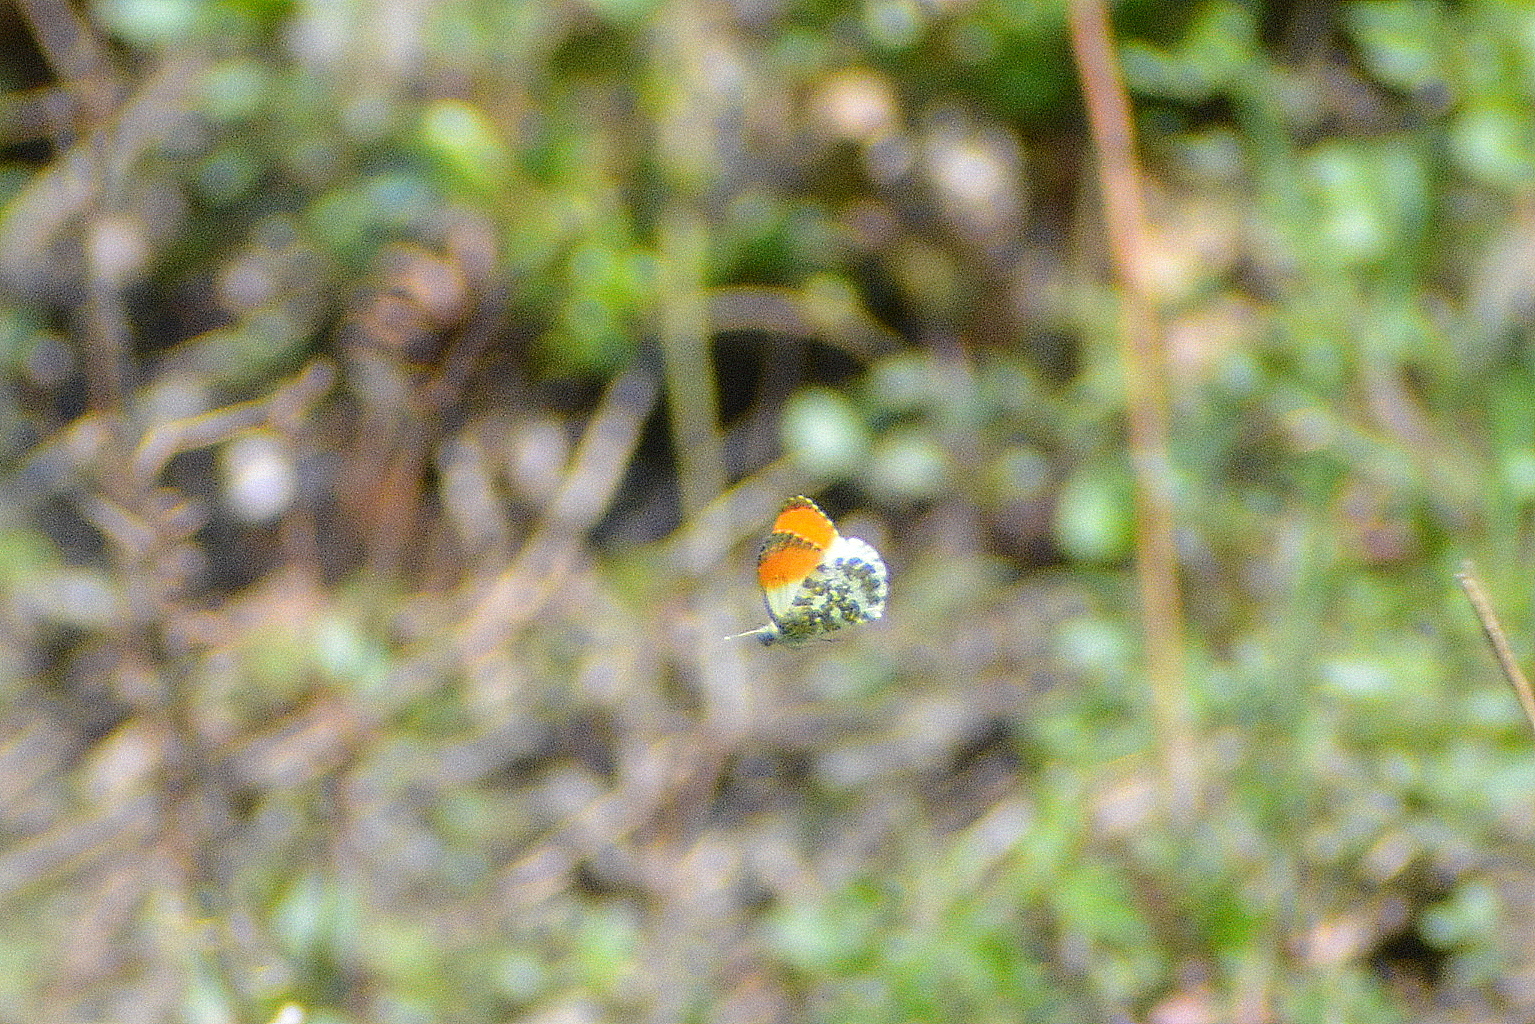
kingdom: Animalia
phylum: Arthropoda
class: Insecta
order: Lepidoptera
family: Pieridae
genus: Anthocharis
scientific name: Anthocharis cardamines
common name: Orange-tip
